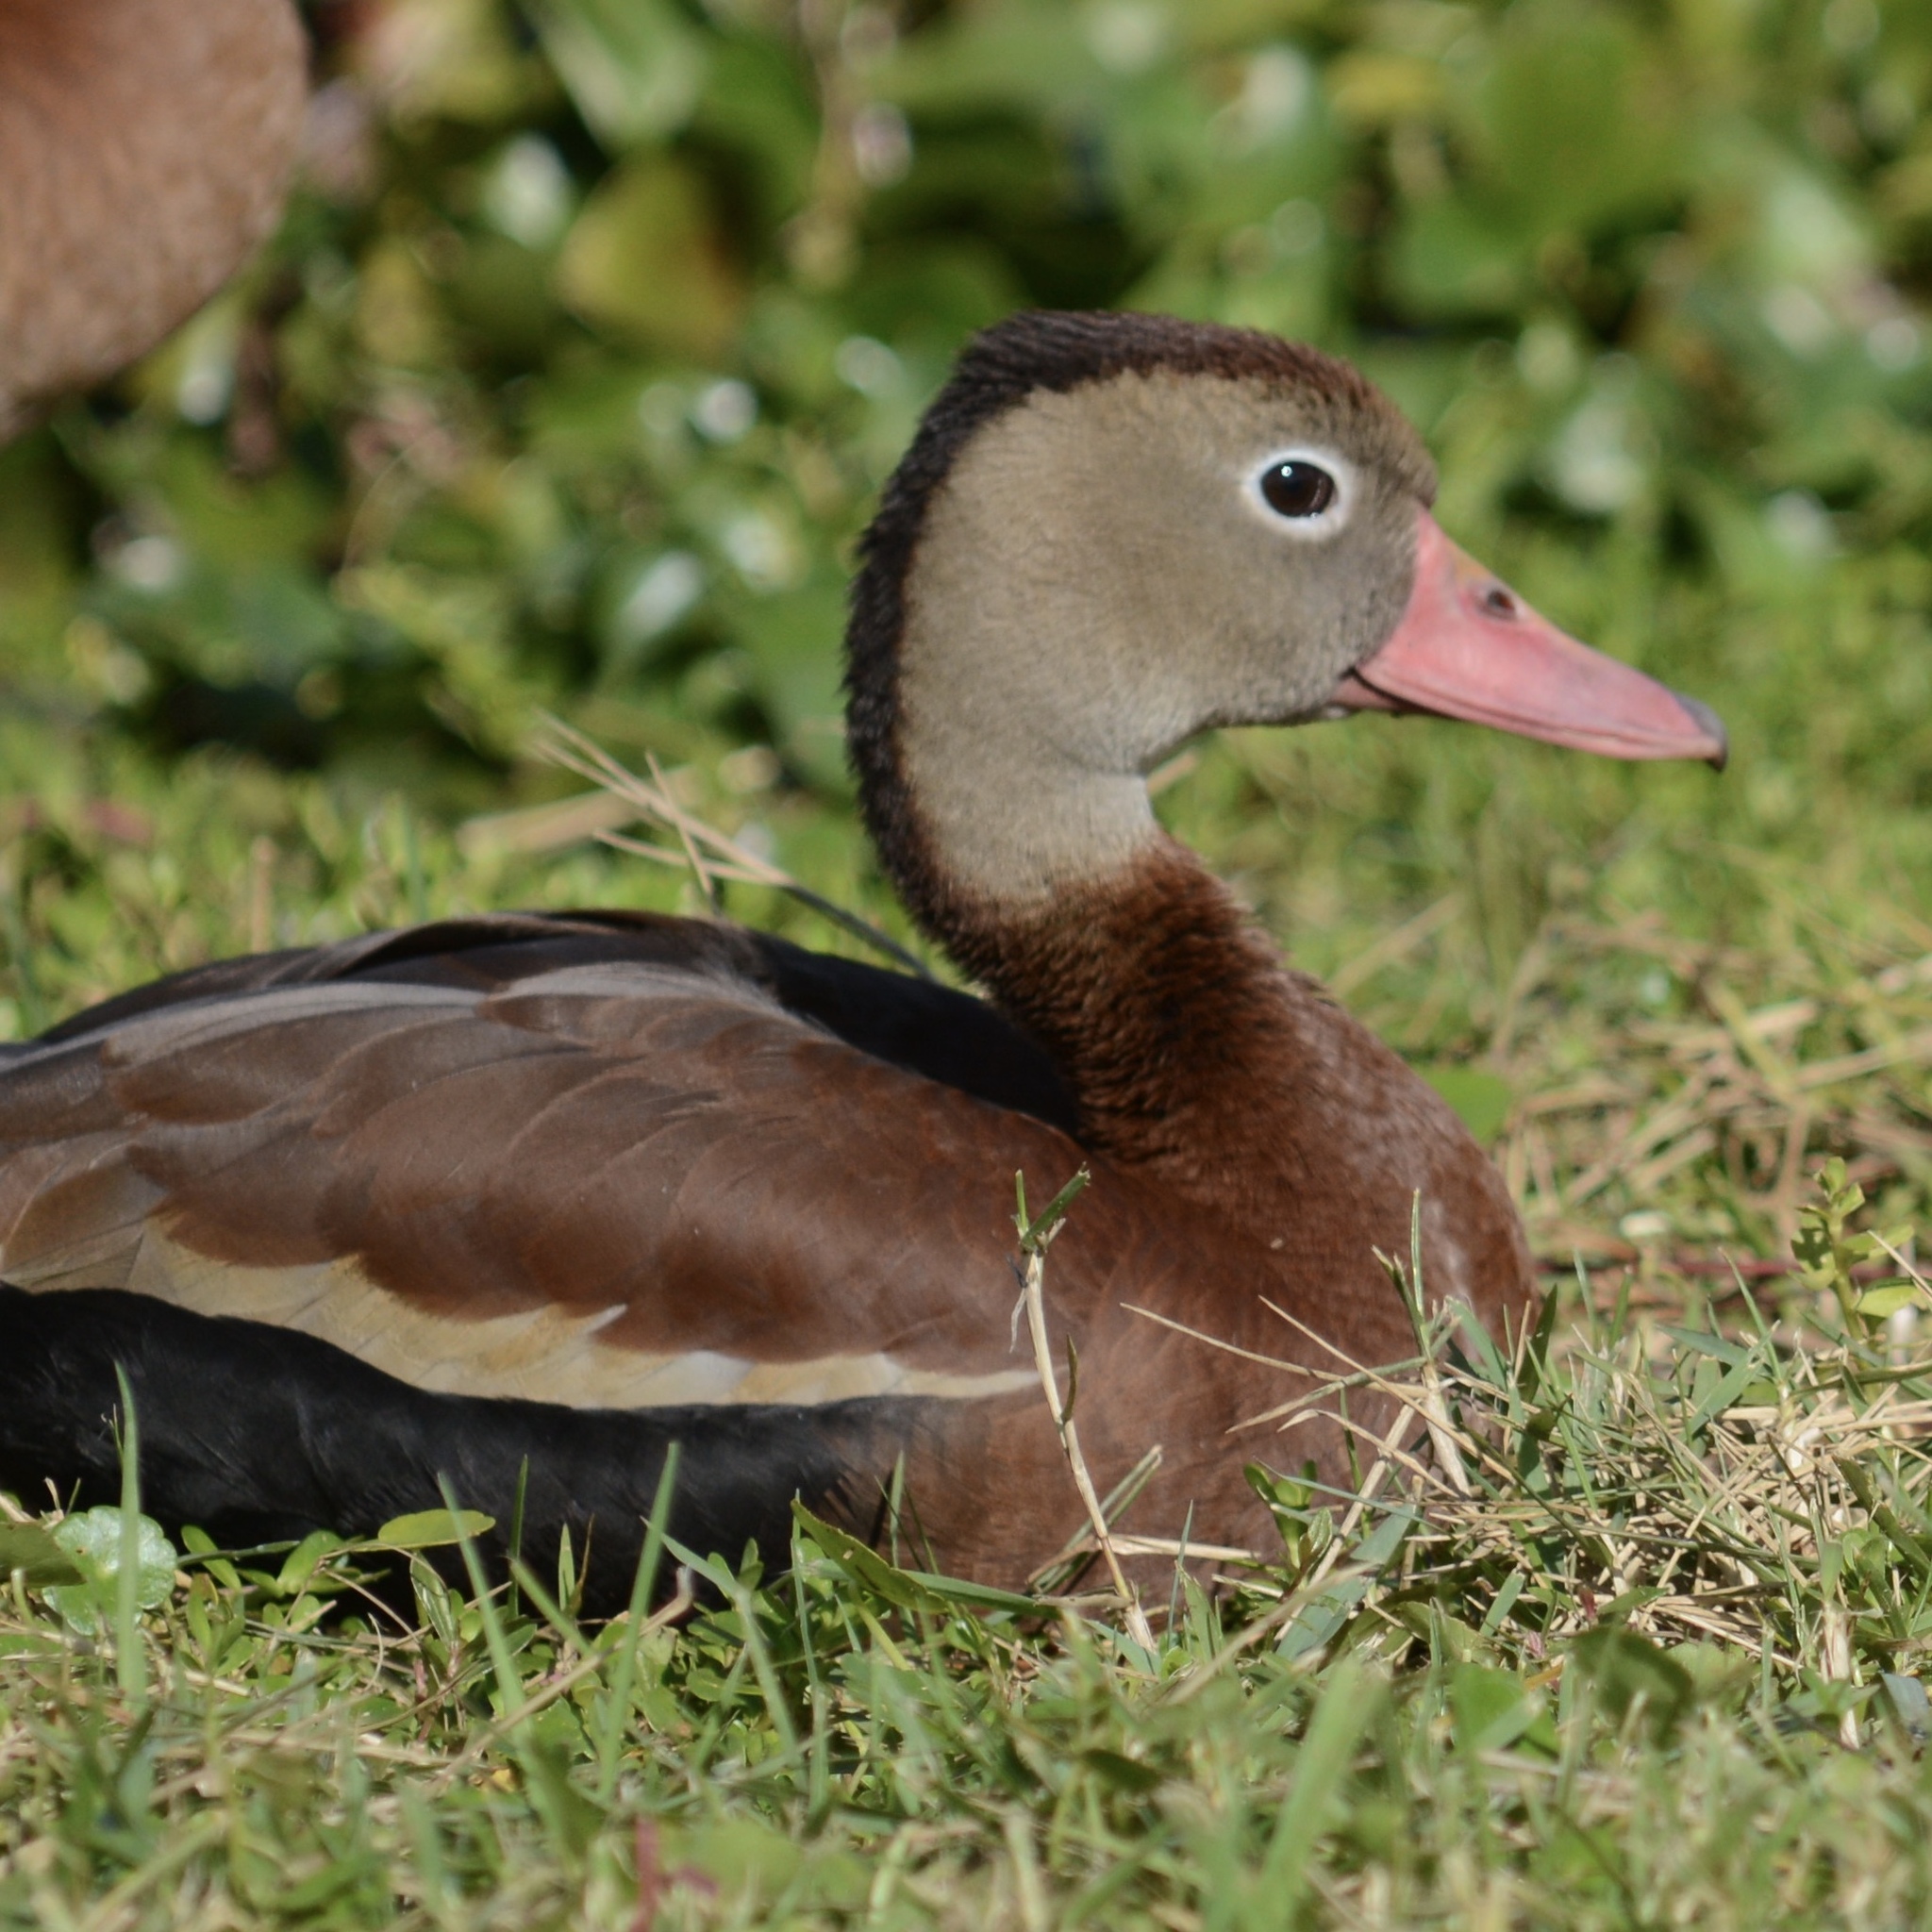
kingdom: Animalia
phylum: Chordata
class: Aves
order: Anseriformes
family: Anatidae
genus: Dendrocygna
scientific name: Dendrocygna autumnalis
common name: Black-bellied whistling duck
